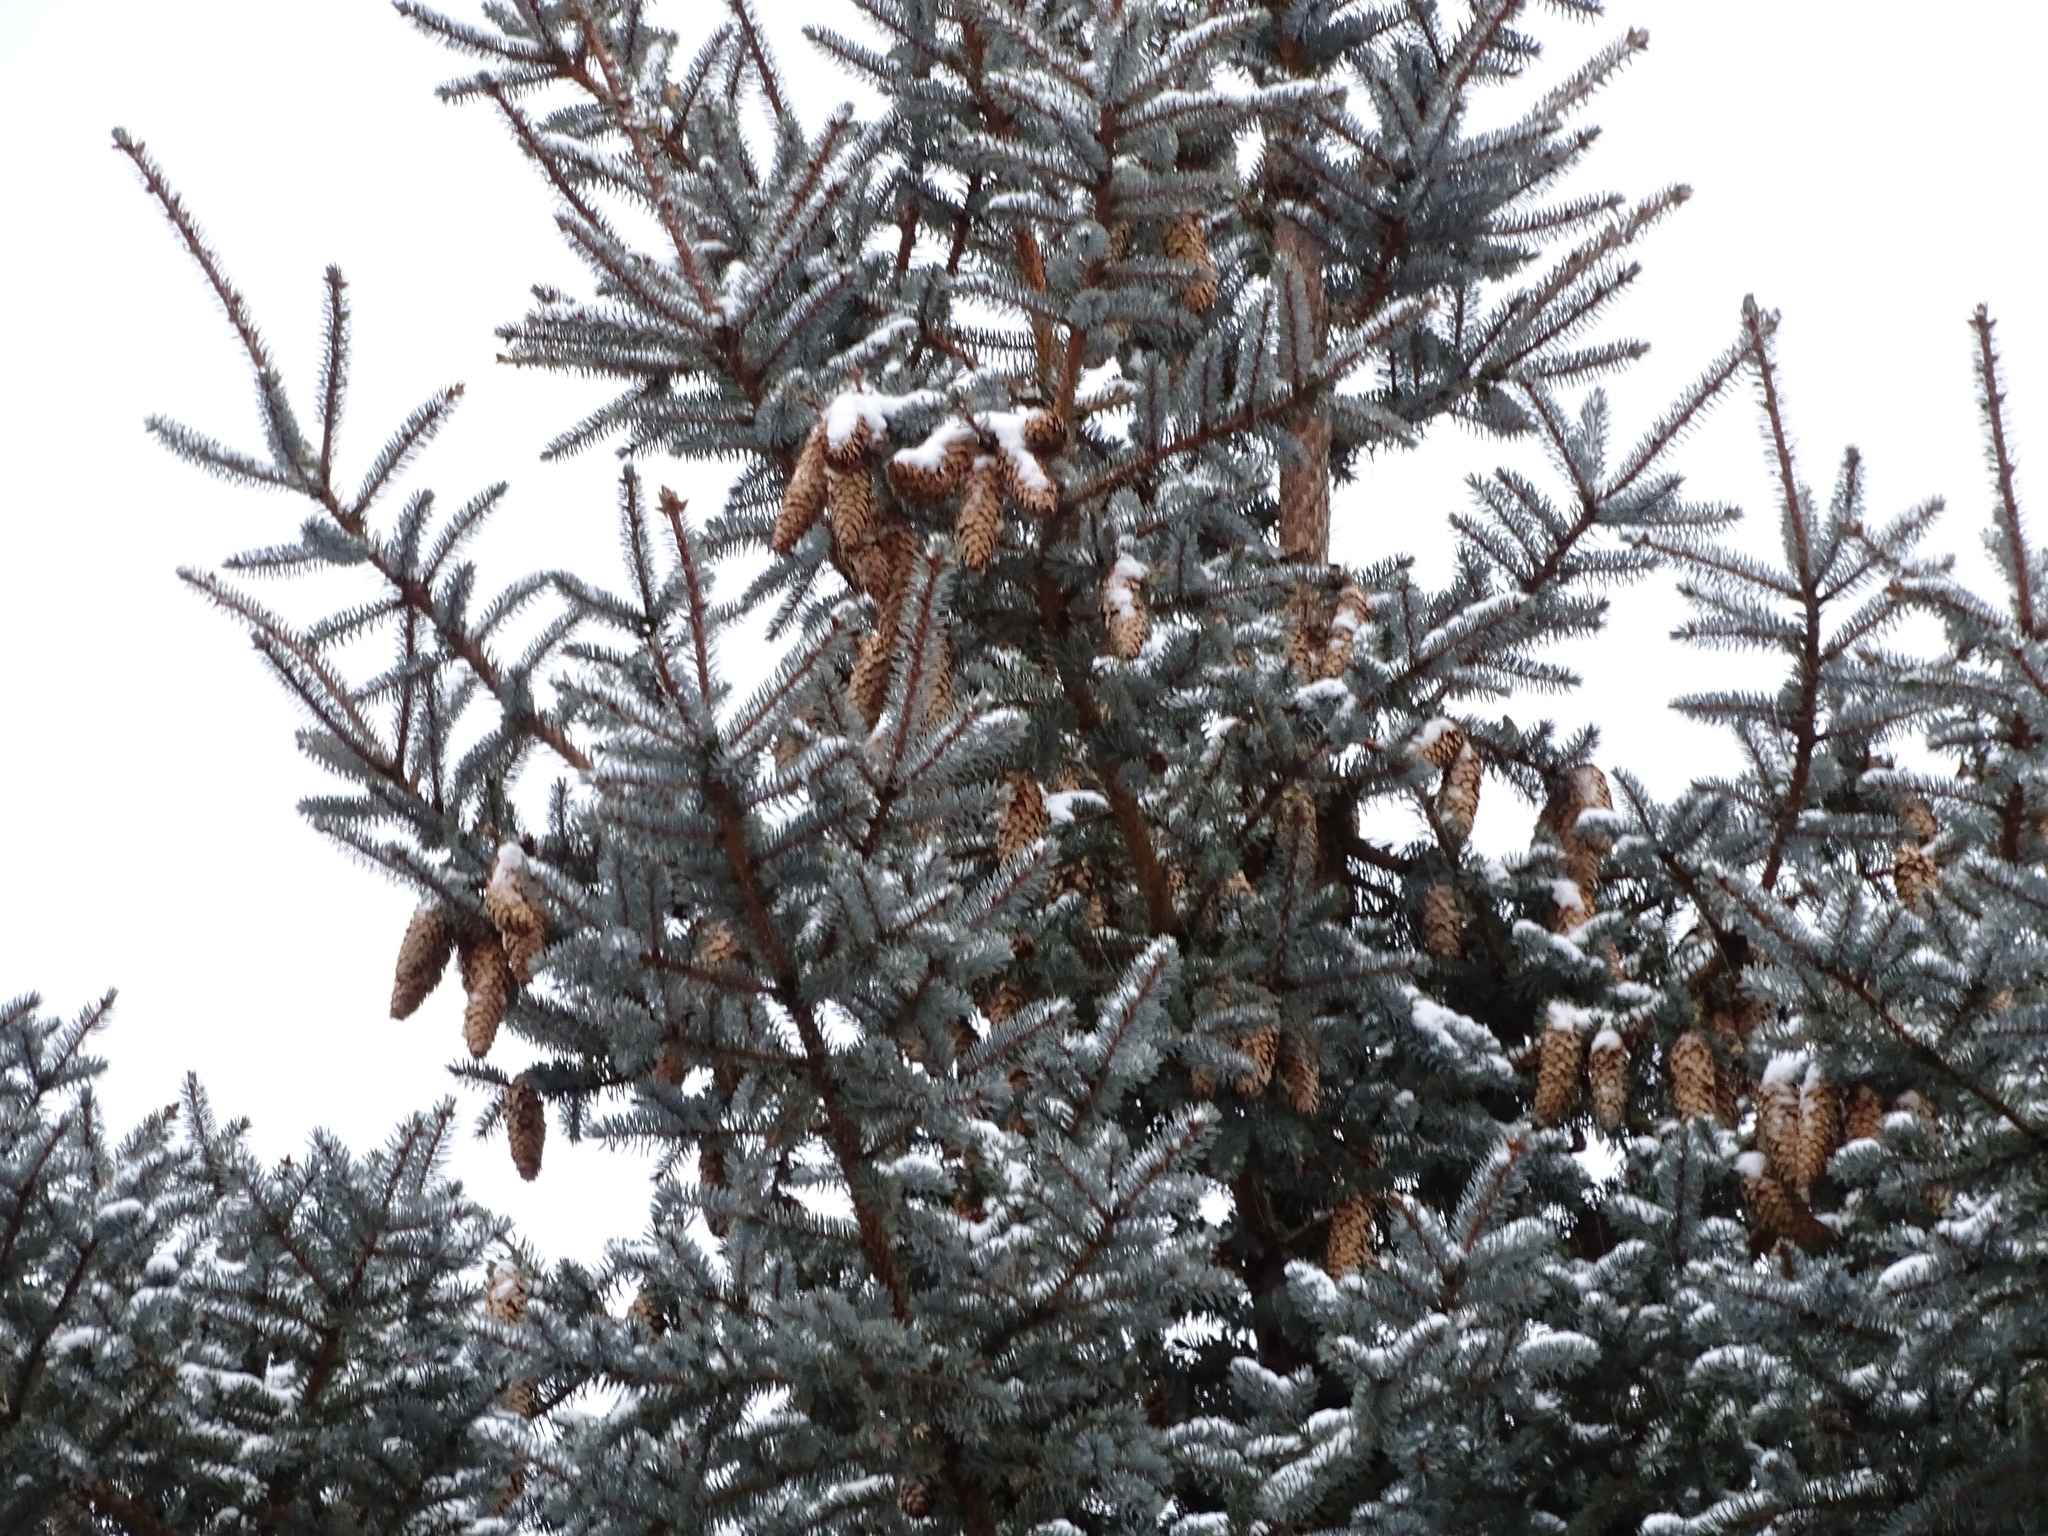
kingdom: Plantae
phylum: Tracheophyta
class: Pinopsida
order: Pinales
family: Pinaceae
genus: Picea
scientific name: Picea pungens
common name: Colorado spruce
